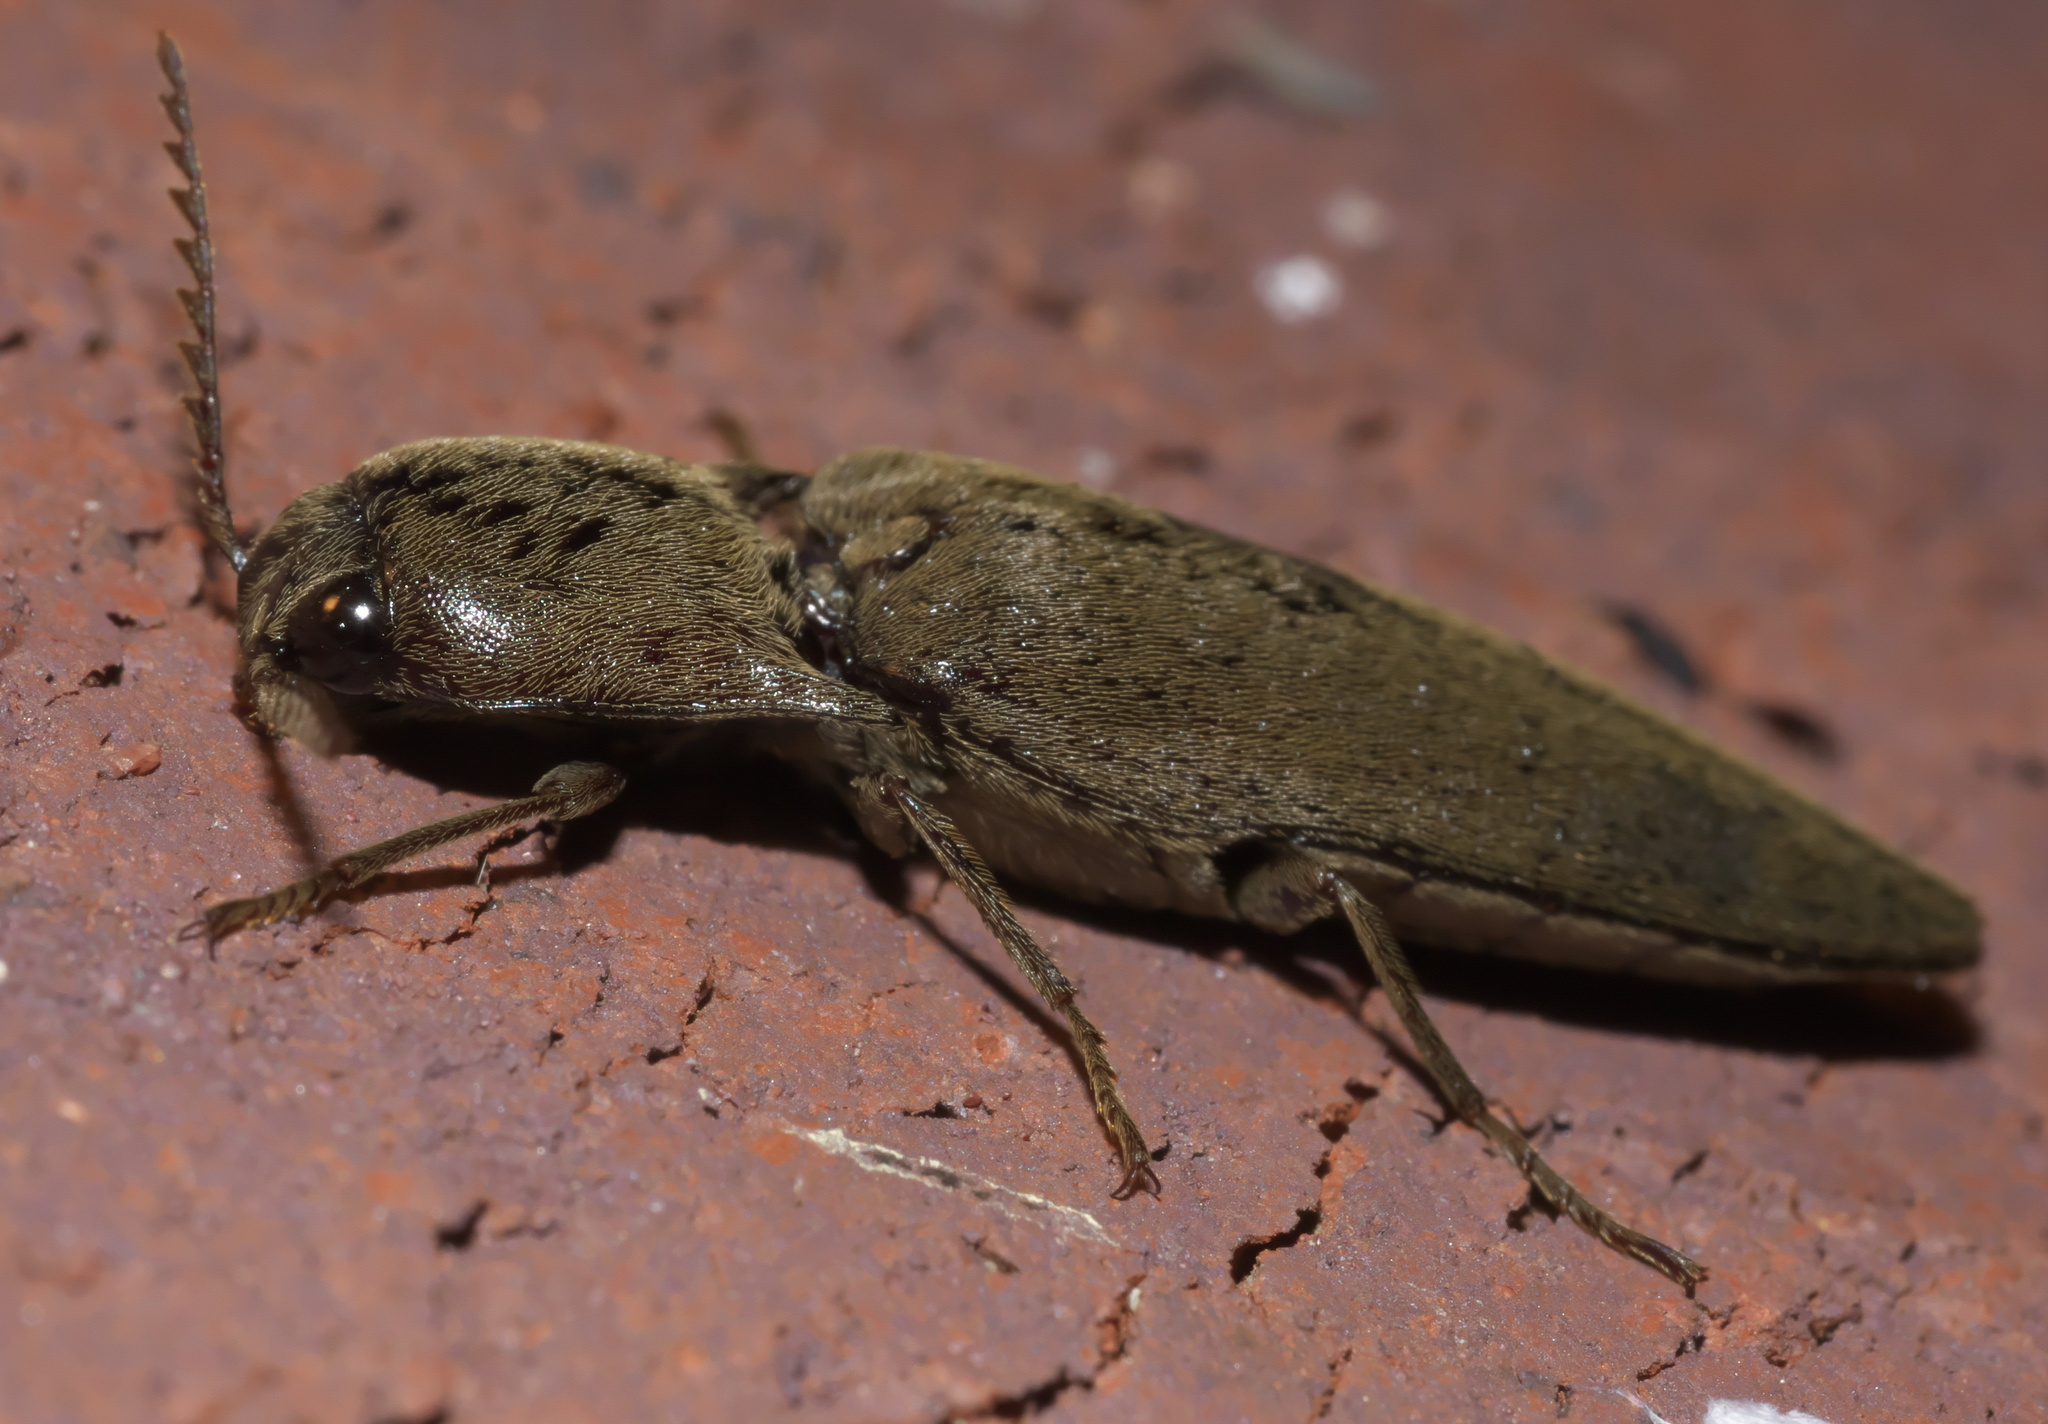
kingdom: Animalia
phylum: Arthropoda
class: Insecta
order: Coleoptera
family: Elateridae
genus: Orthostethus
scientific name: Orthostethus infuscatus
